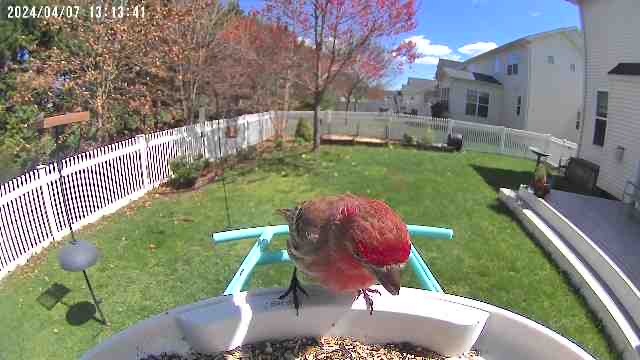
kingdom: Animalia
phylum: Chordata
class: Aves
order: Passeriformes
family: Fringillidae
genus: Haemorhous
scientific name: Haemorhous mexicanus
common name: House finch
